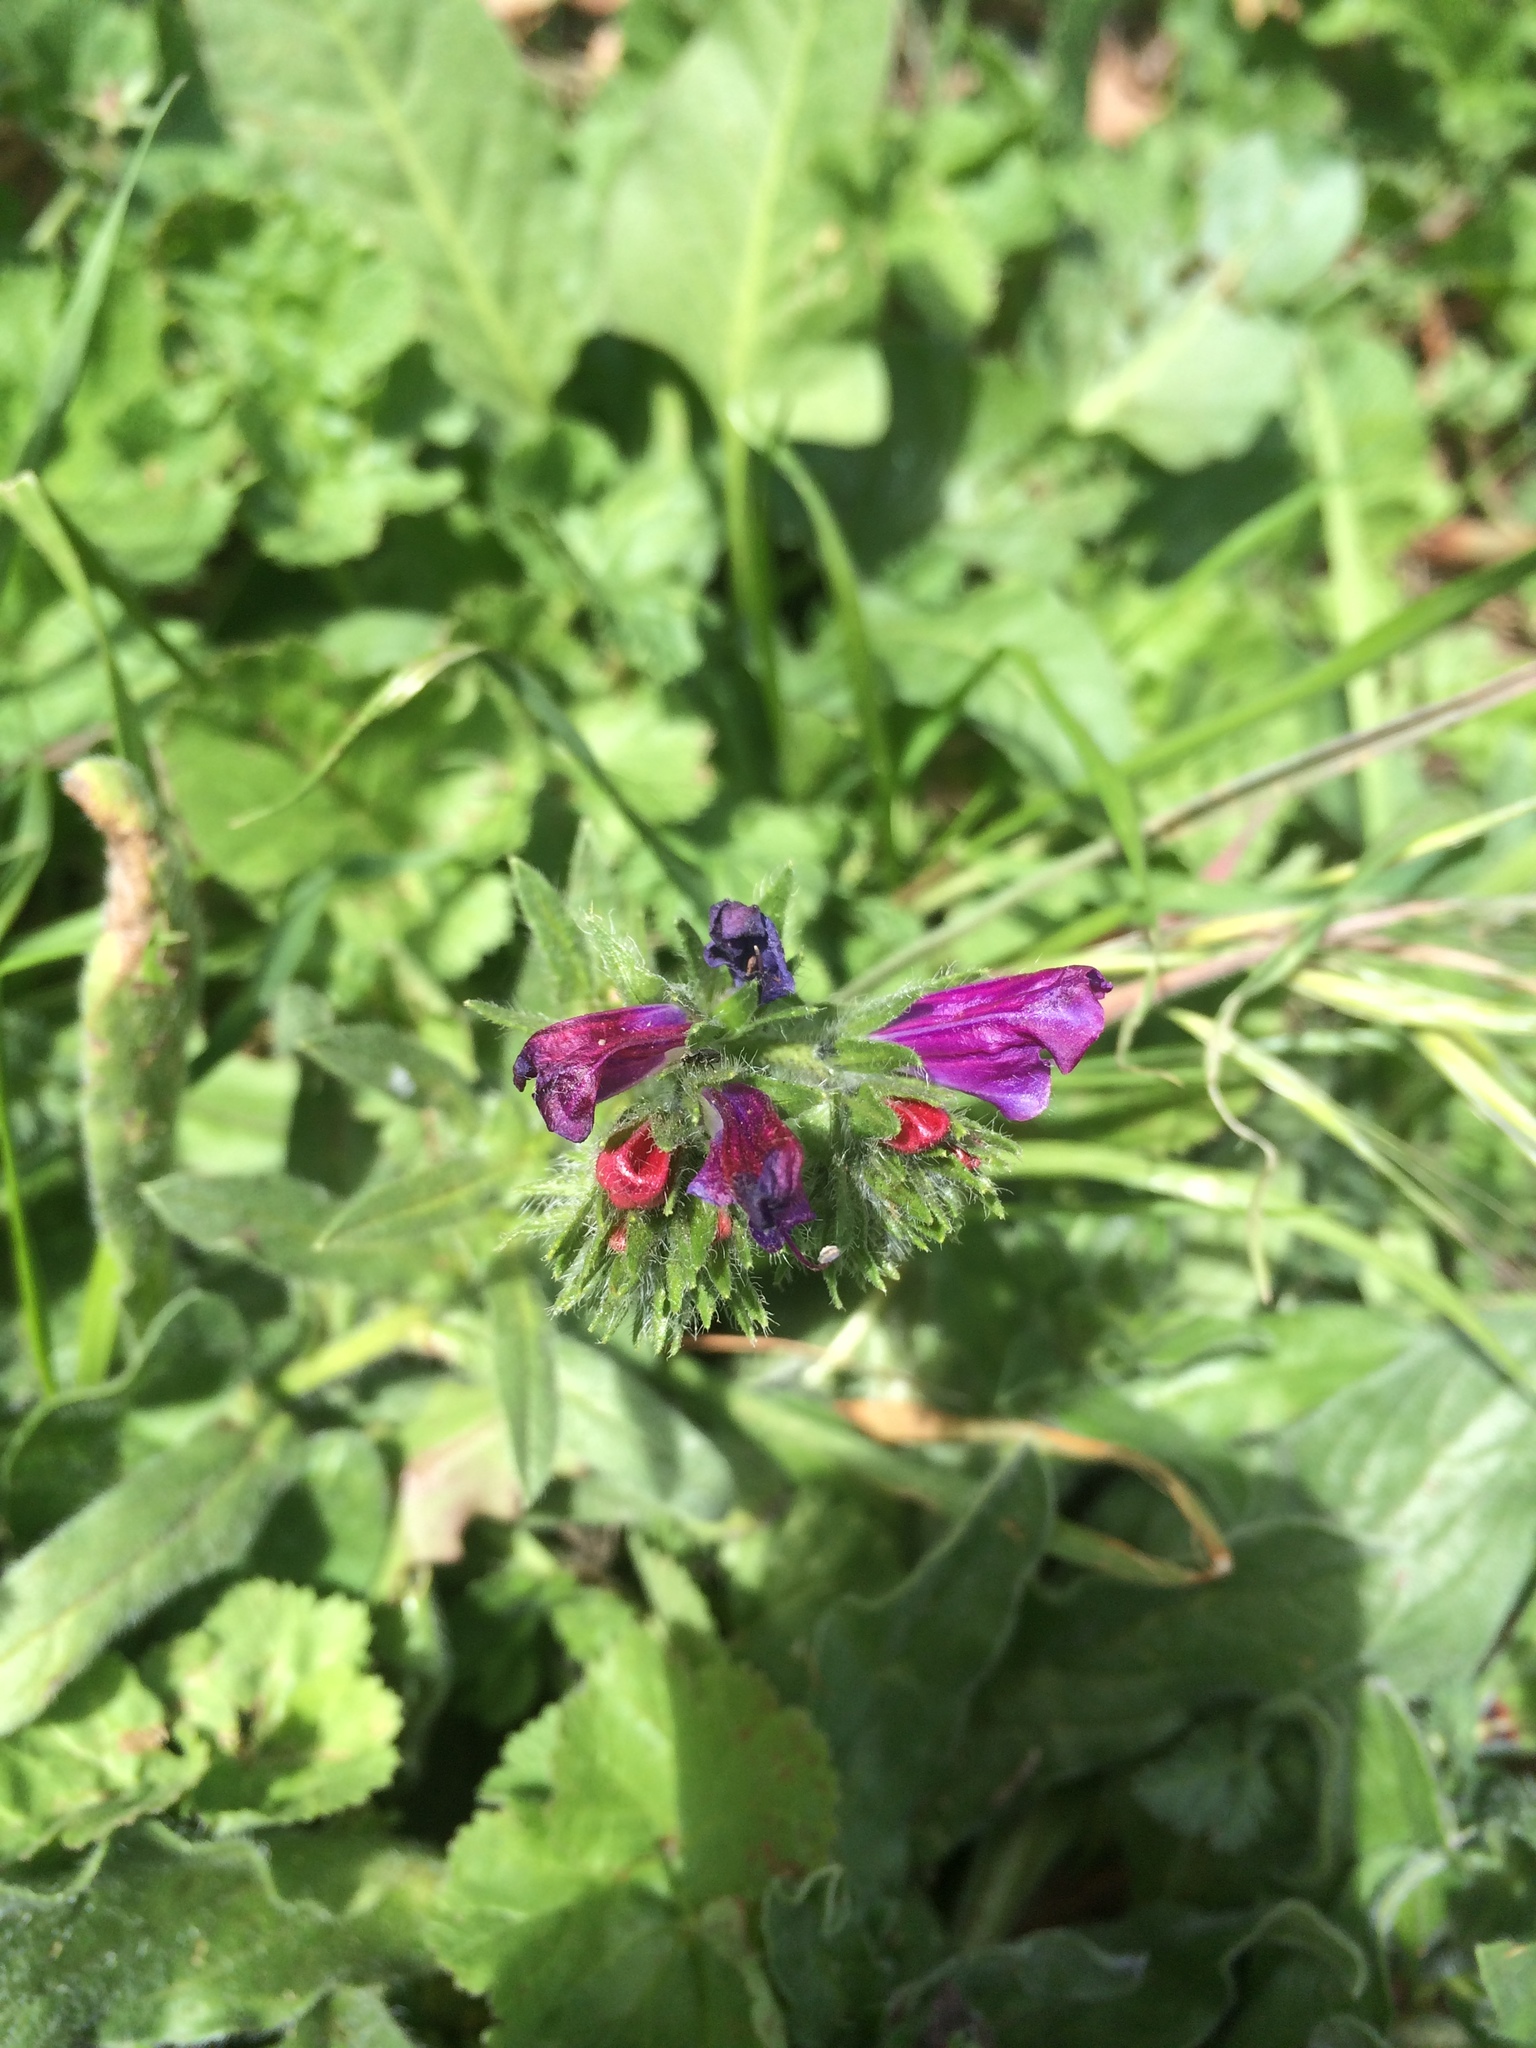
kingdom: Plantae
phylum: Tracheophyta
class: Magnoliopsida
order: Boraginales
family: Boraginaceae
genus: Echium
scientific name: Echium plantagineum
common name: Purple viper's-bugloss
